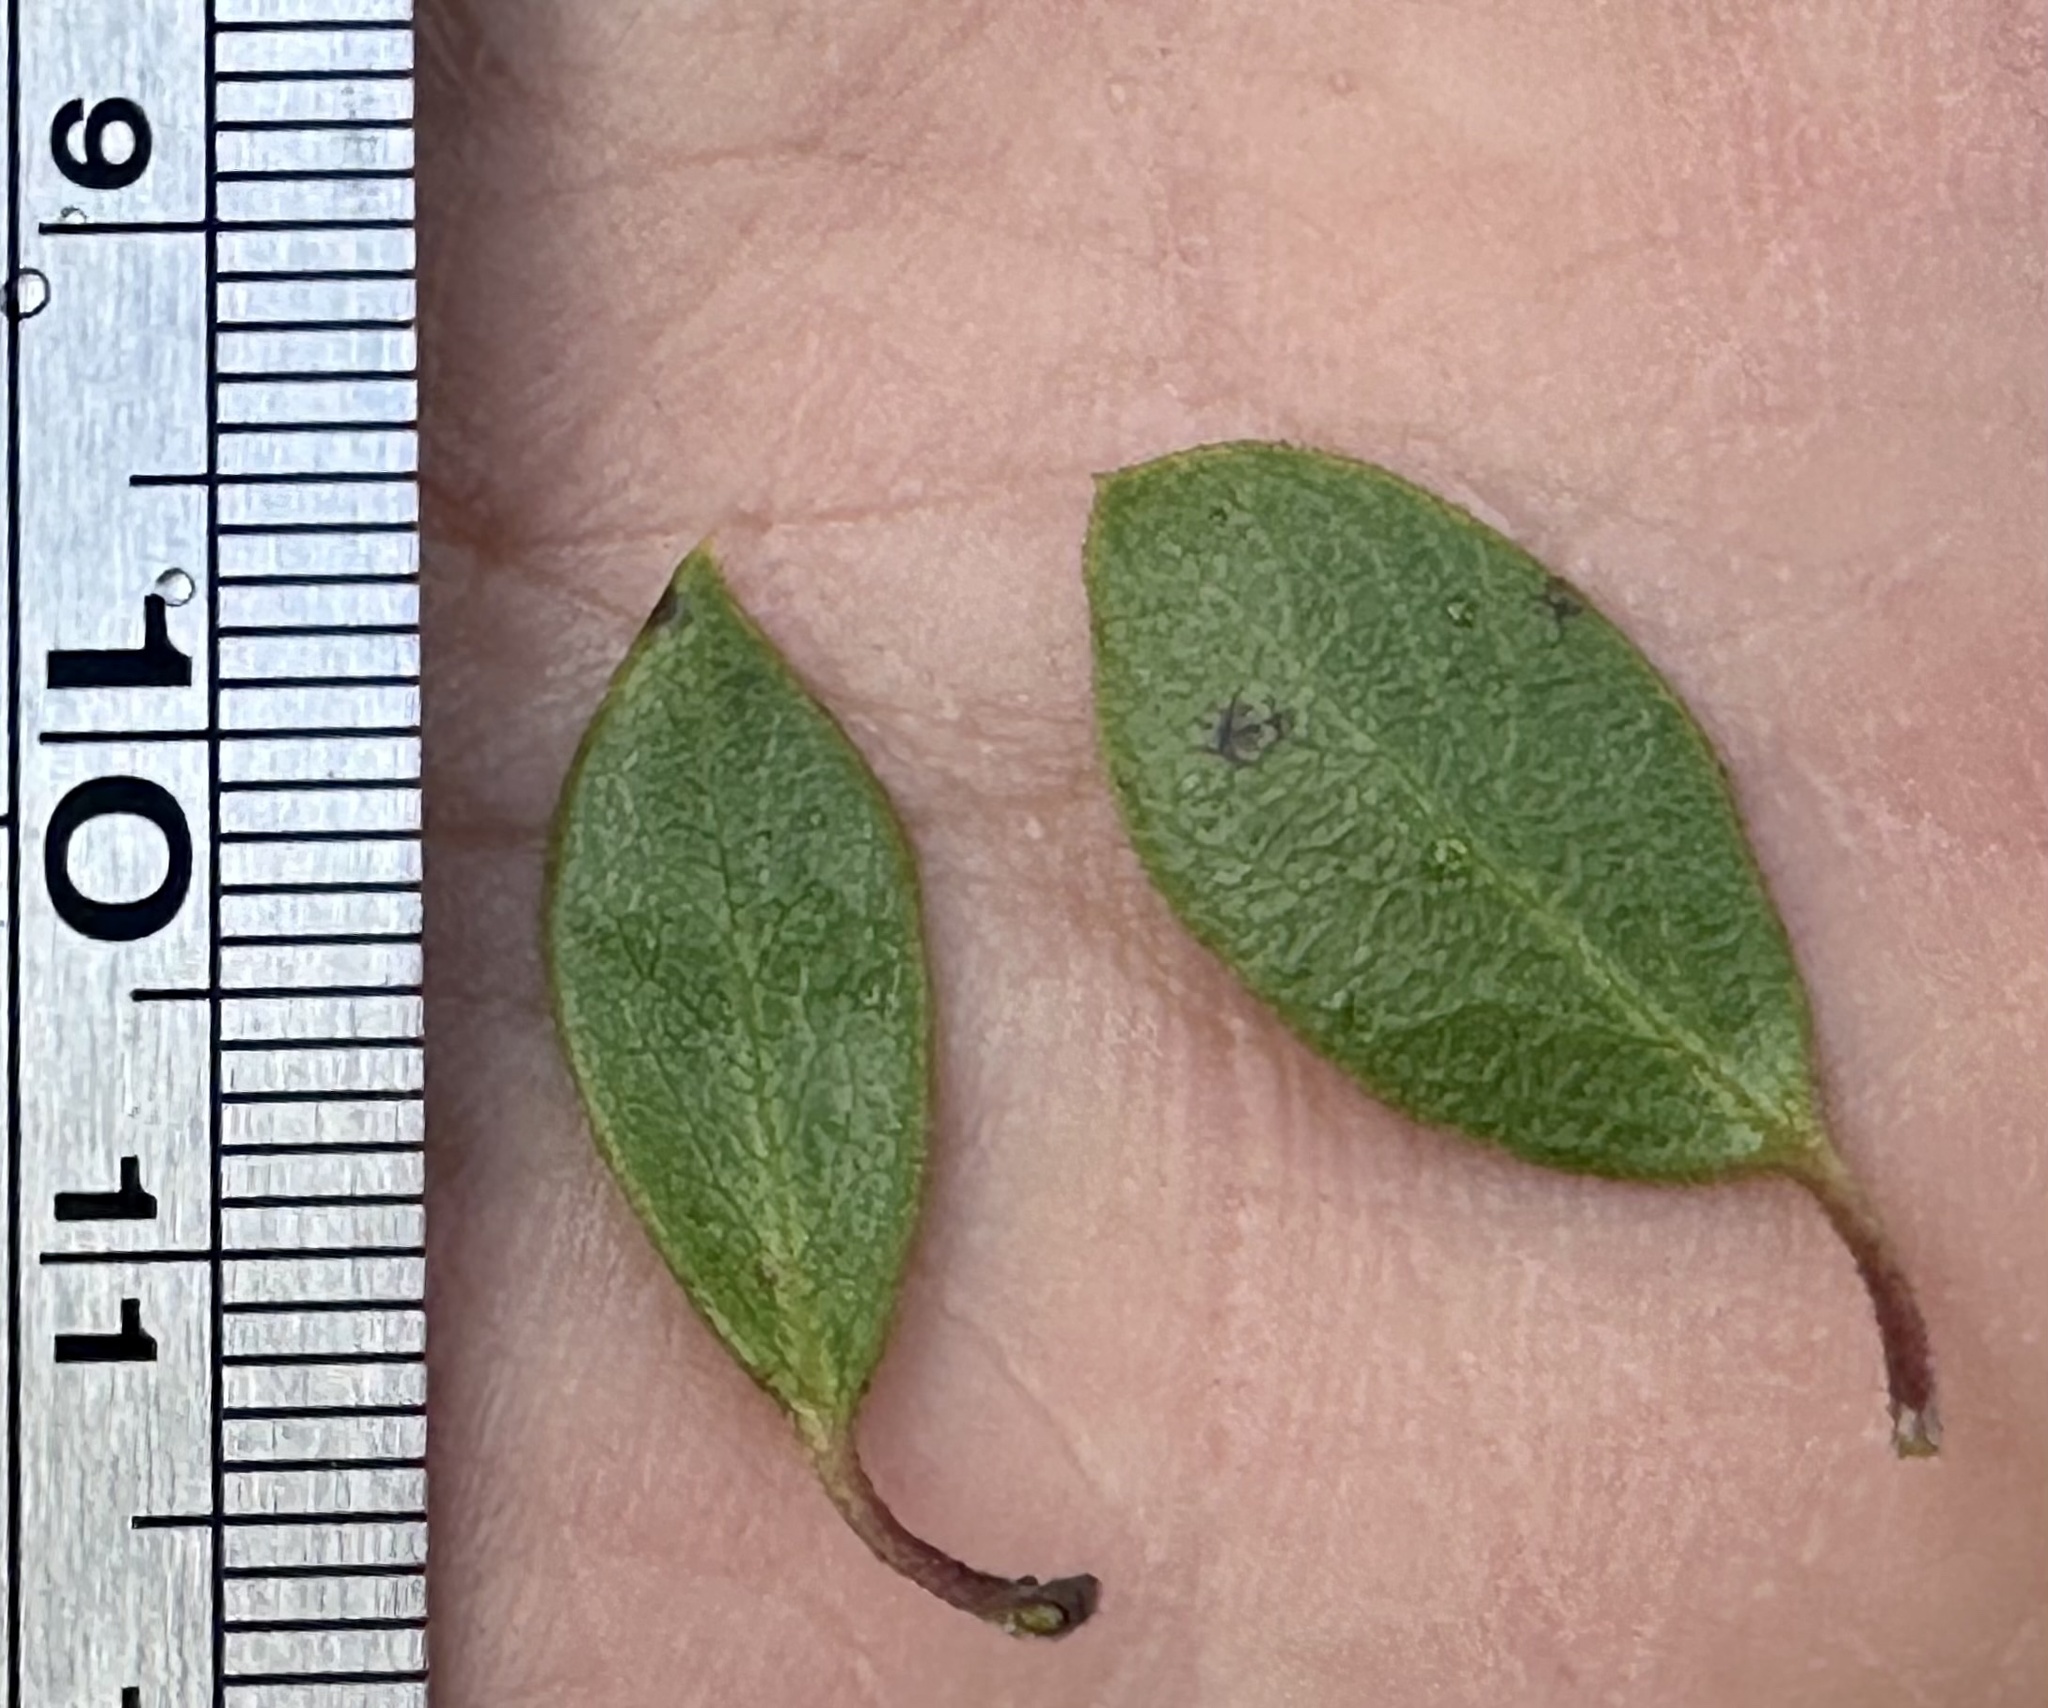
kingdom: Plantae
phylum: Tracheophyta
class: Magnoliopsida
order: Ericales
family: Ericaceae
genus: Arctostaphylos
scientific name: Arctostaphylos hookeri
